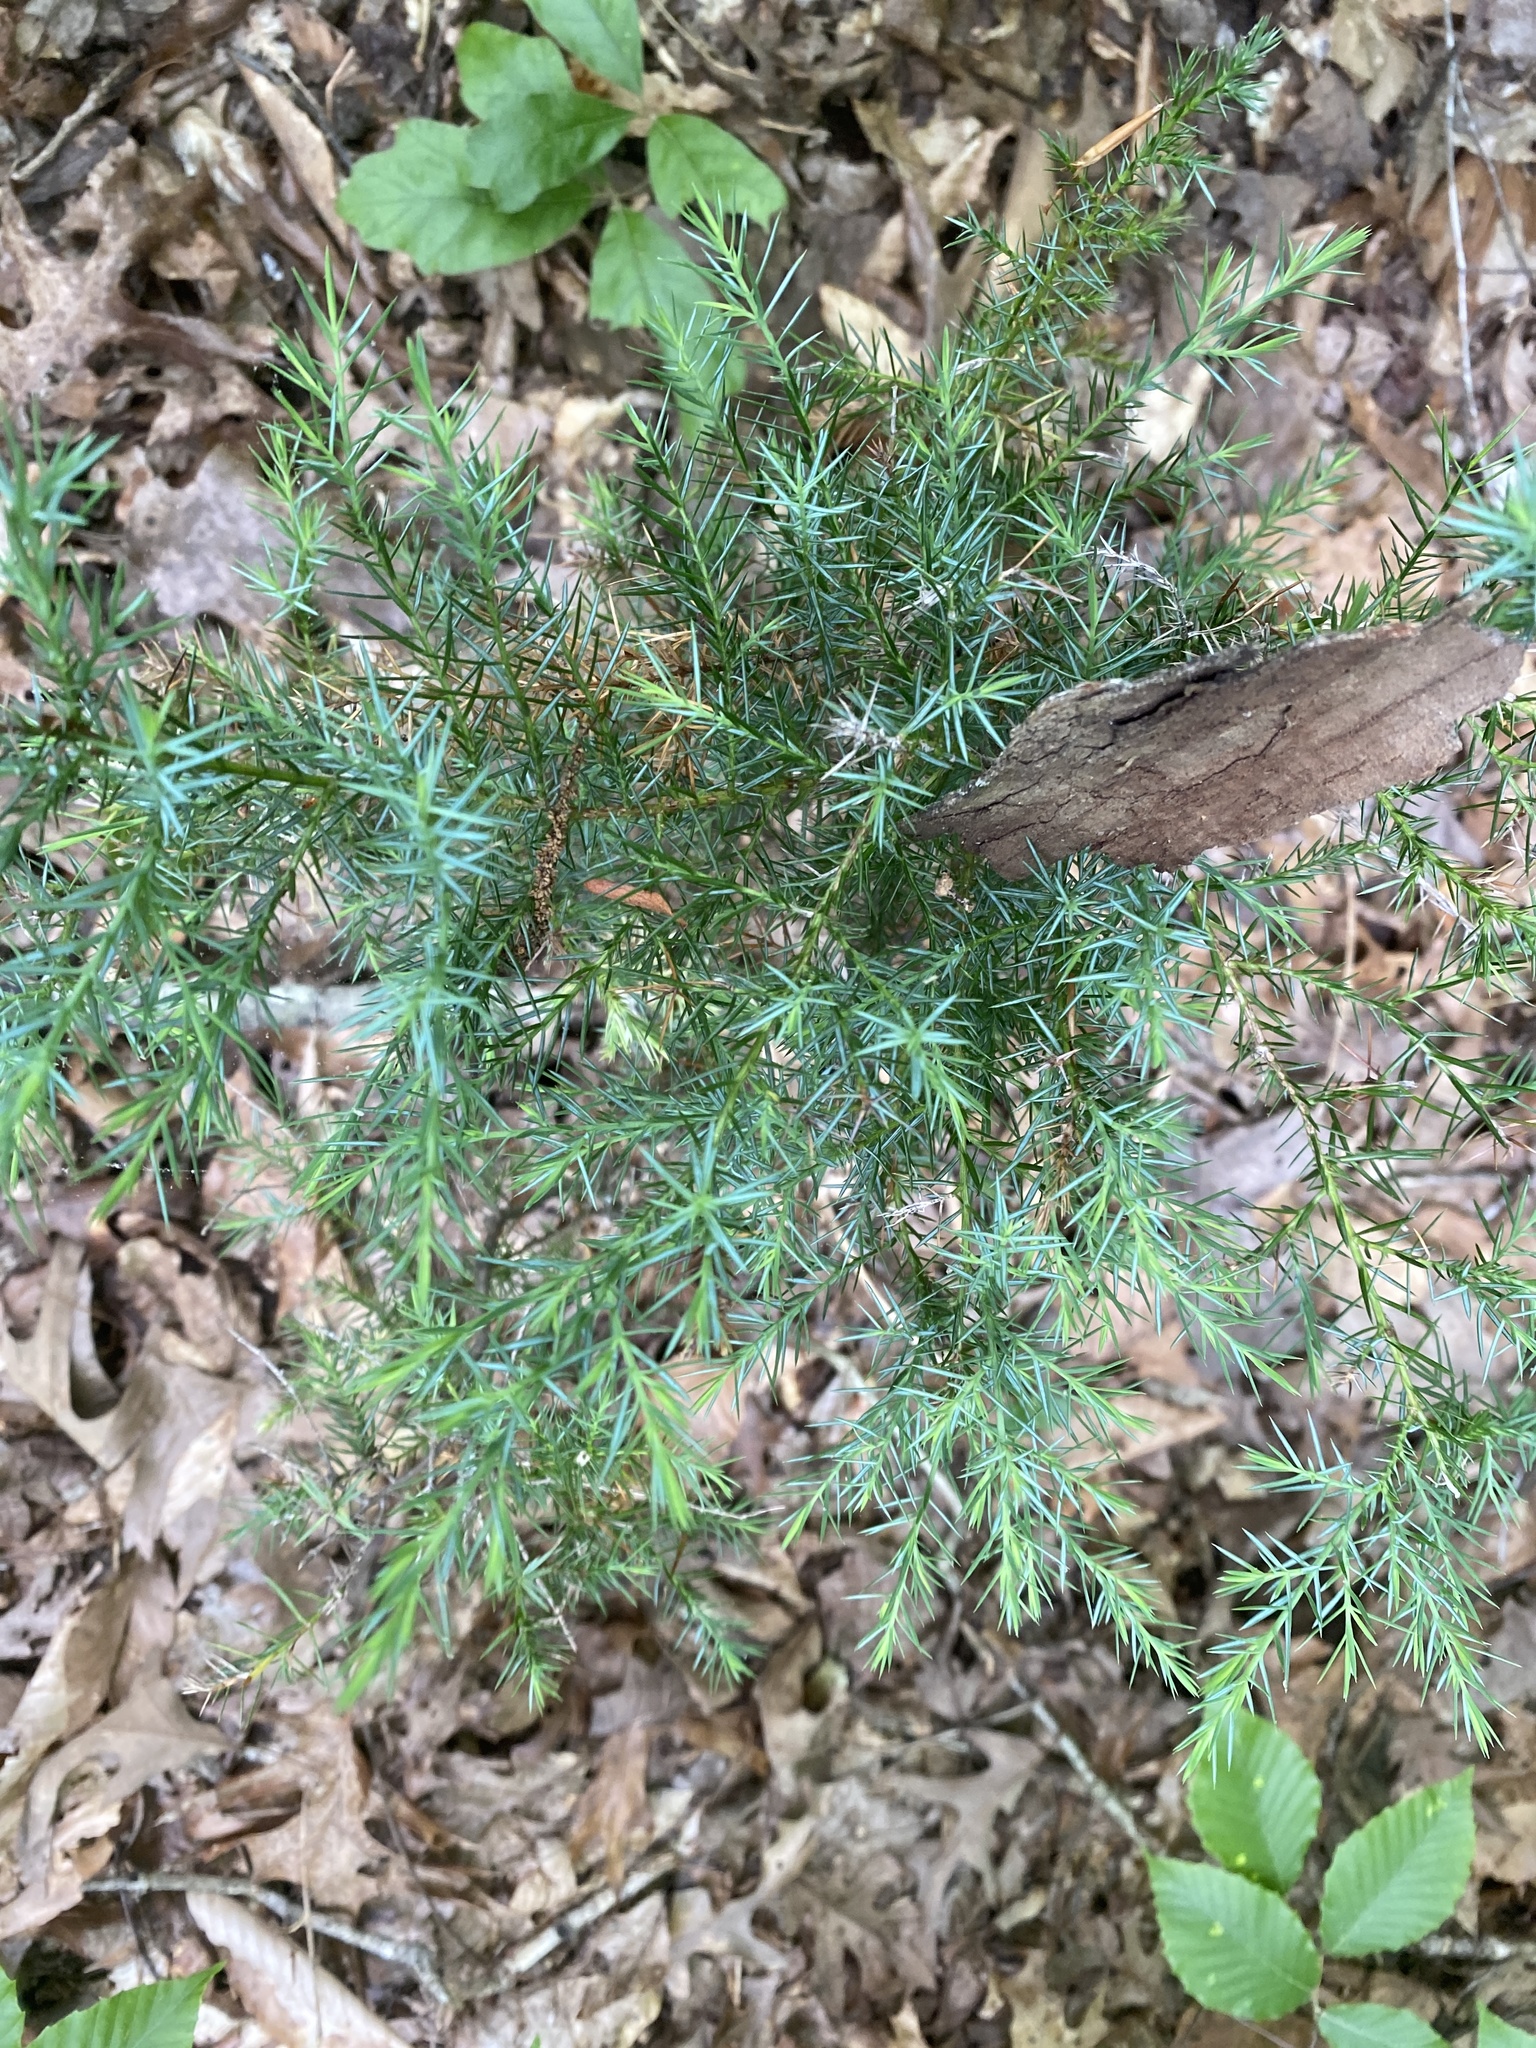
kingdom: Plantae
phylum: Tracheophyta
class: Pinopsida
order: Pinales
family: Cupressaceae
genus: Juniperus
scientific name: Juniperus virginiana
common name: Red juniper
